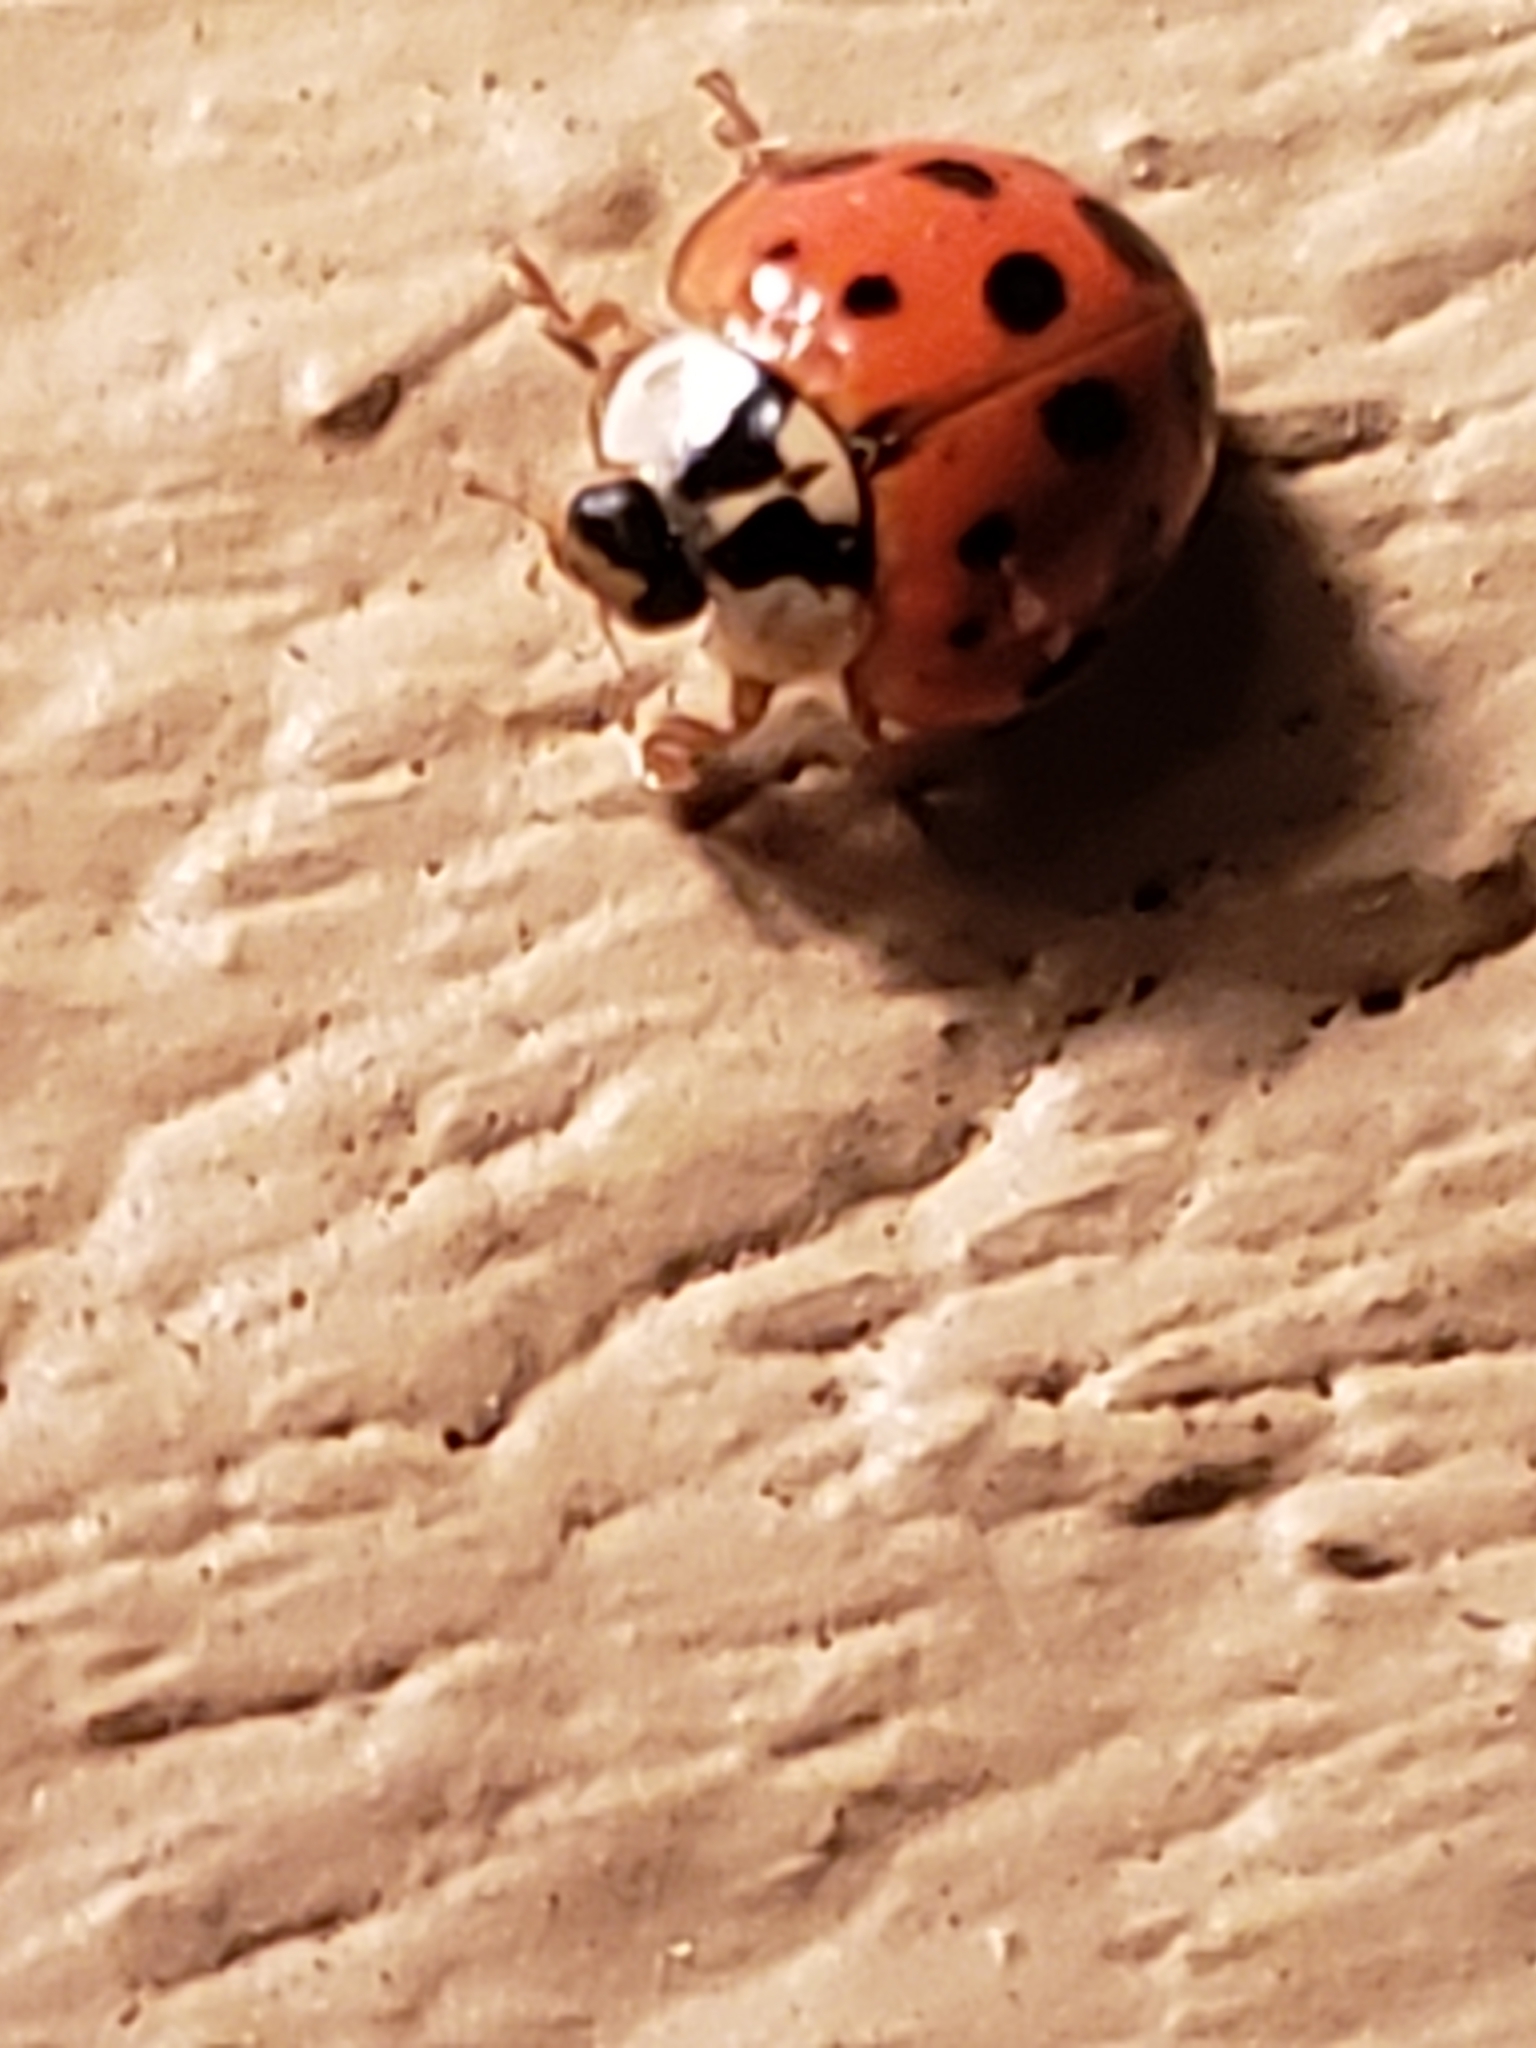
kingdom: Animalia
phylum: Arthropoda
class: Insecta
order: Coleoptera
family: Coccinellidae
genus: Harmonia
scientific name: Harmonia axyridis
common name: Harlequin ladybird
